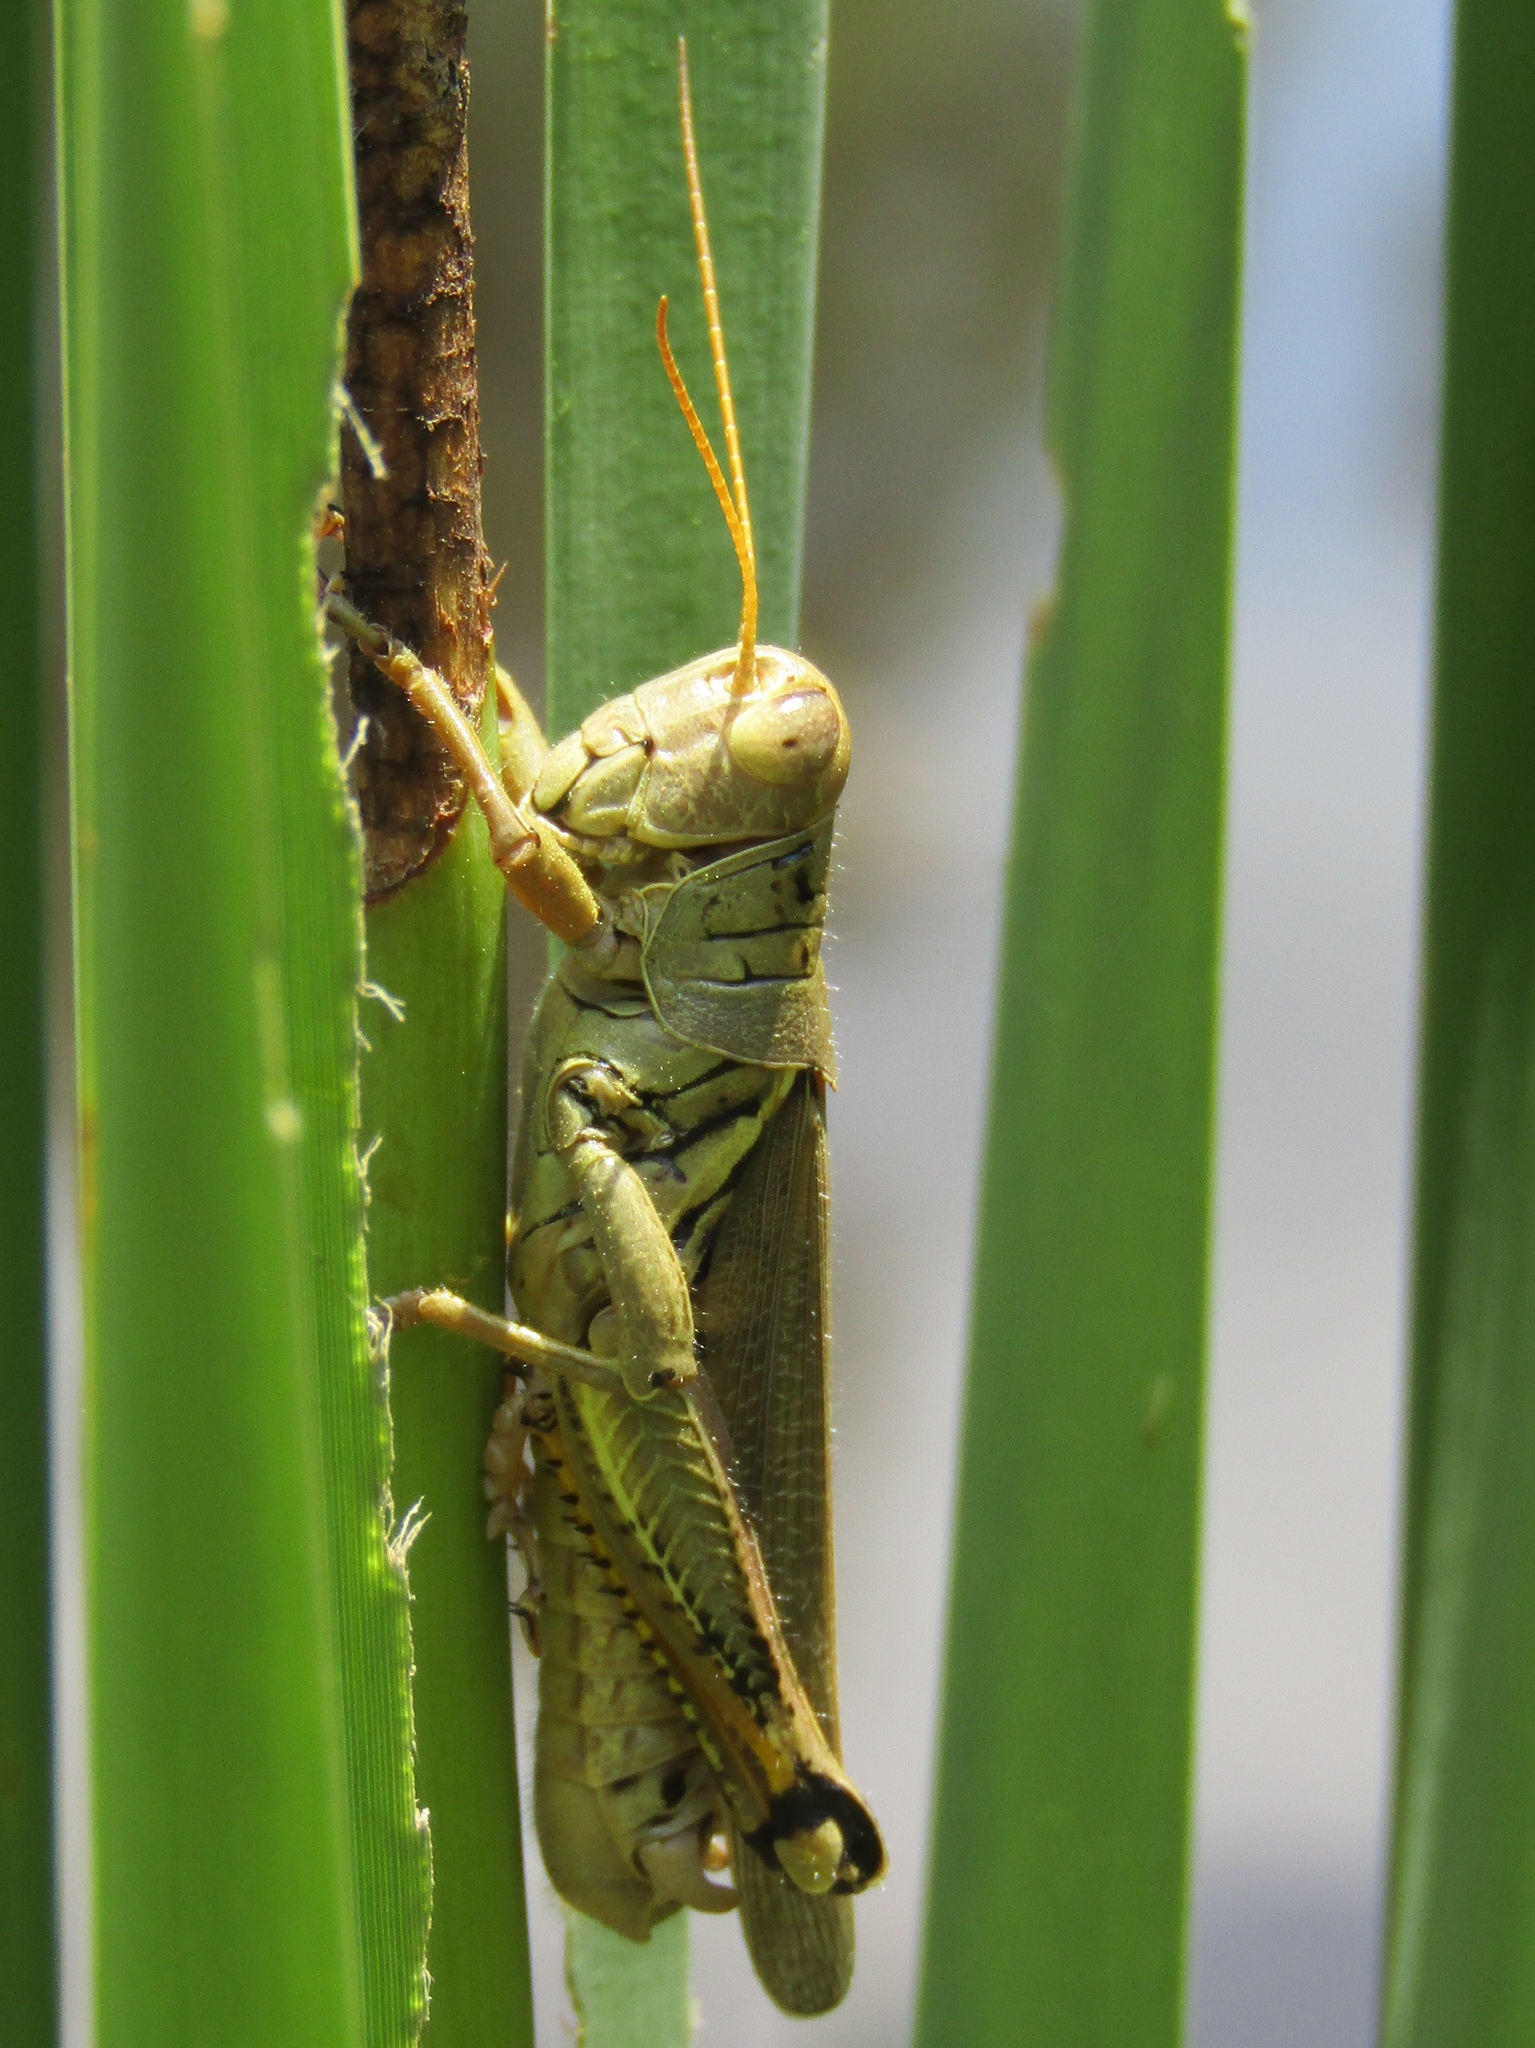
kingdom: Animalia
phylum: Arthropoda
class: Insecta
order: Orthoptera
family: Acrididae
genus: Melanoplus
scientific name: Melanoplus differentialis
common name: Differential grasshopper
